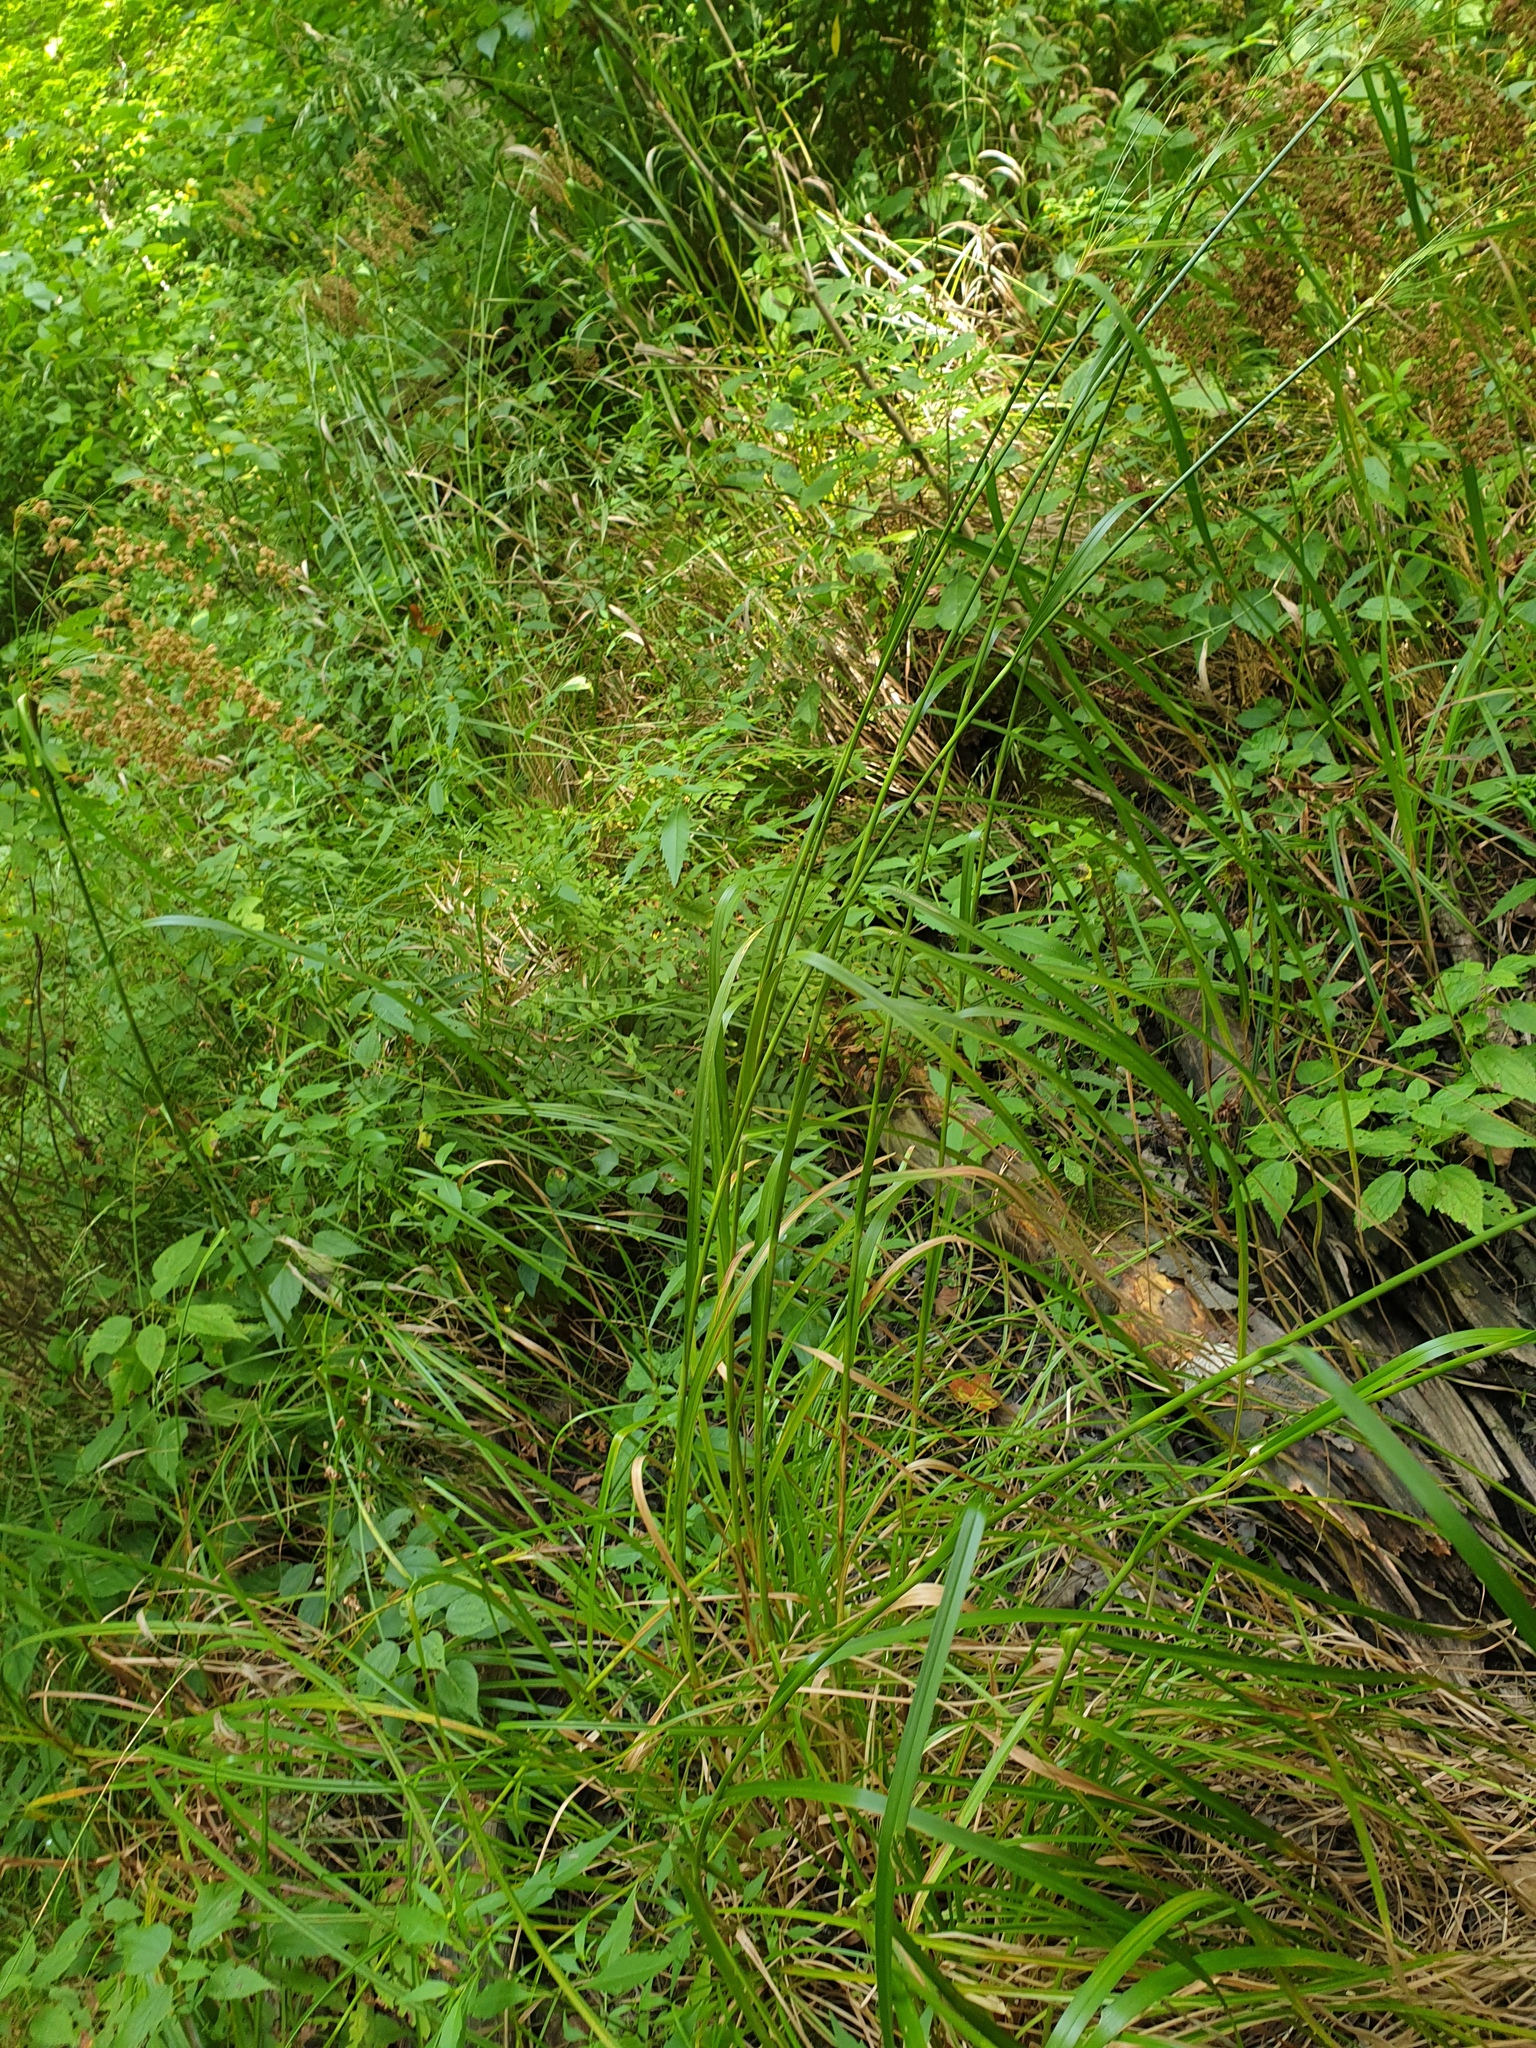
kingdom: Plantae
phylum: Tracheophyta
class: Liliopsida
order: Poales
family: Cyperaceae
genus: Scirpus
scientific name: Scirpus cyperinus
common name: Black-sheathed bulrush
